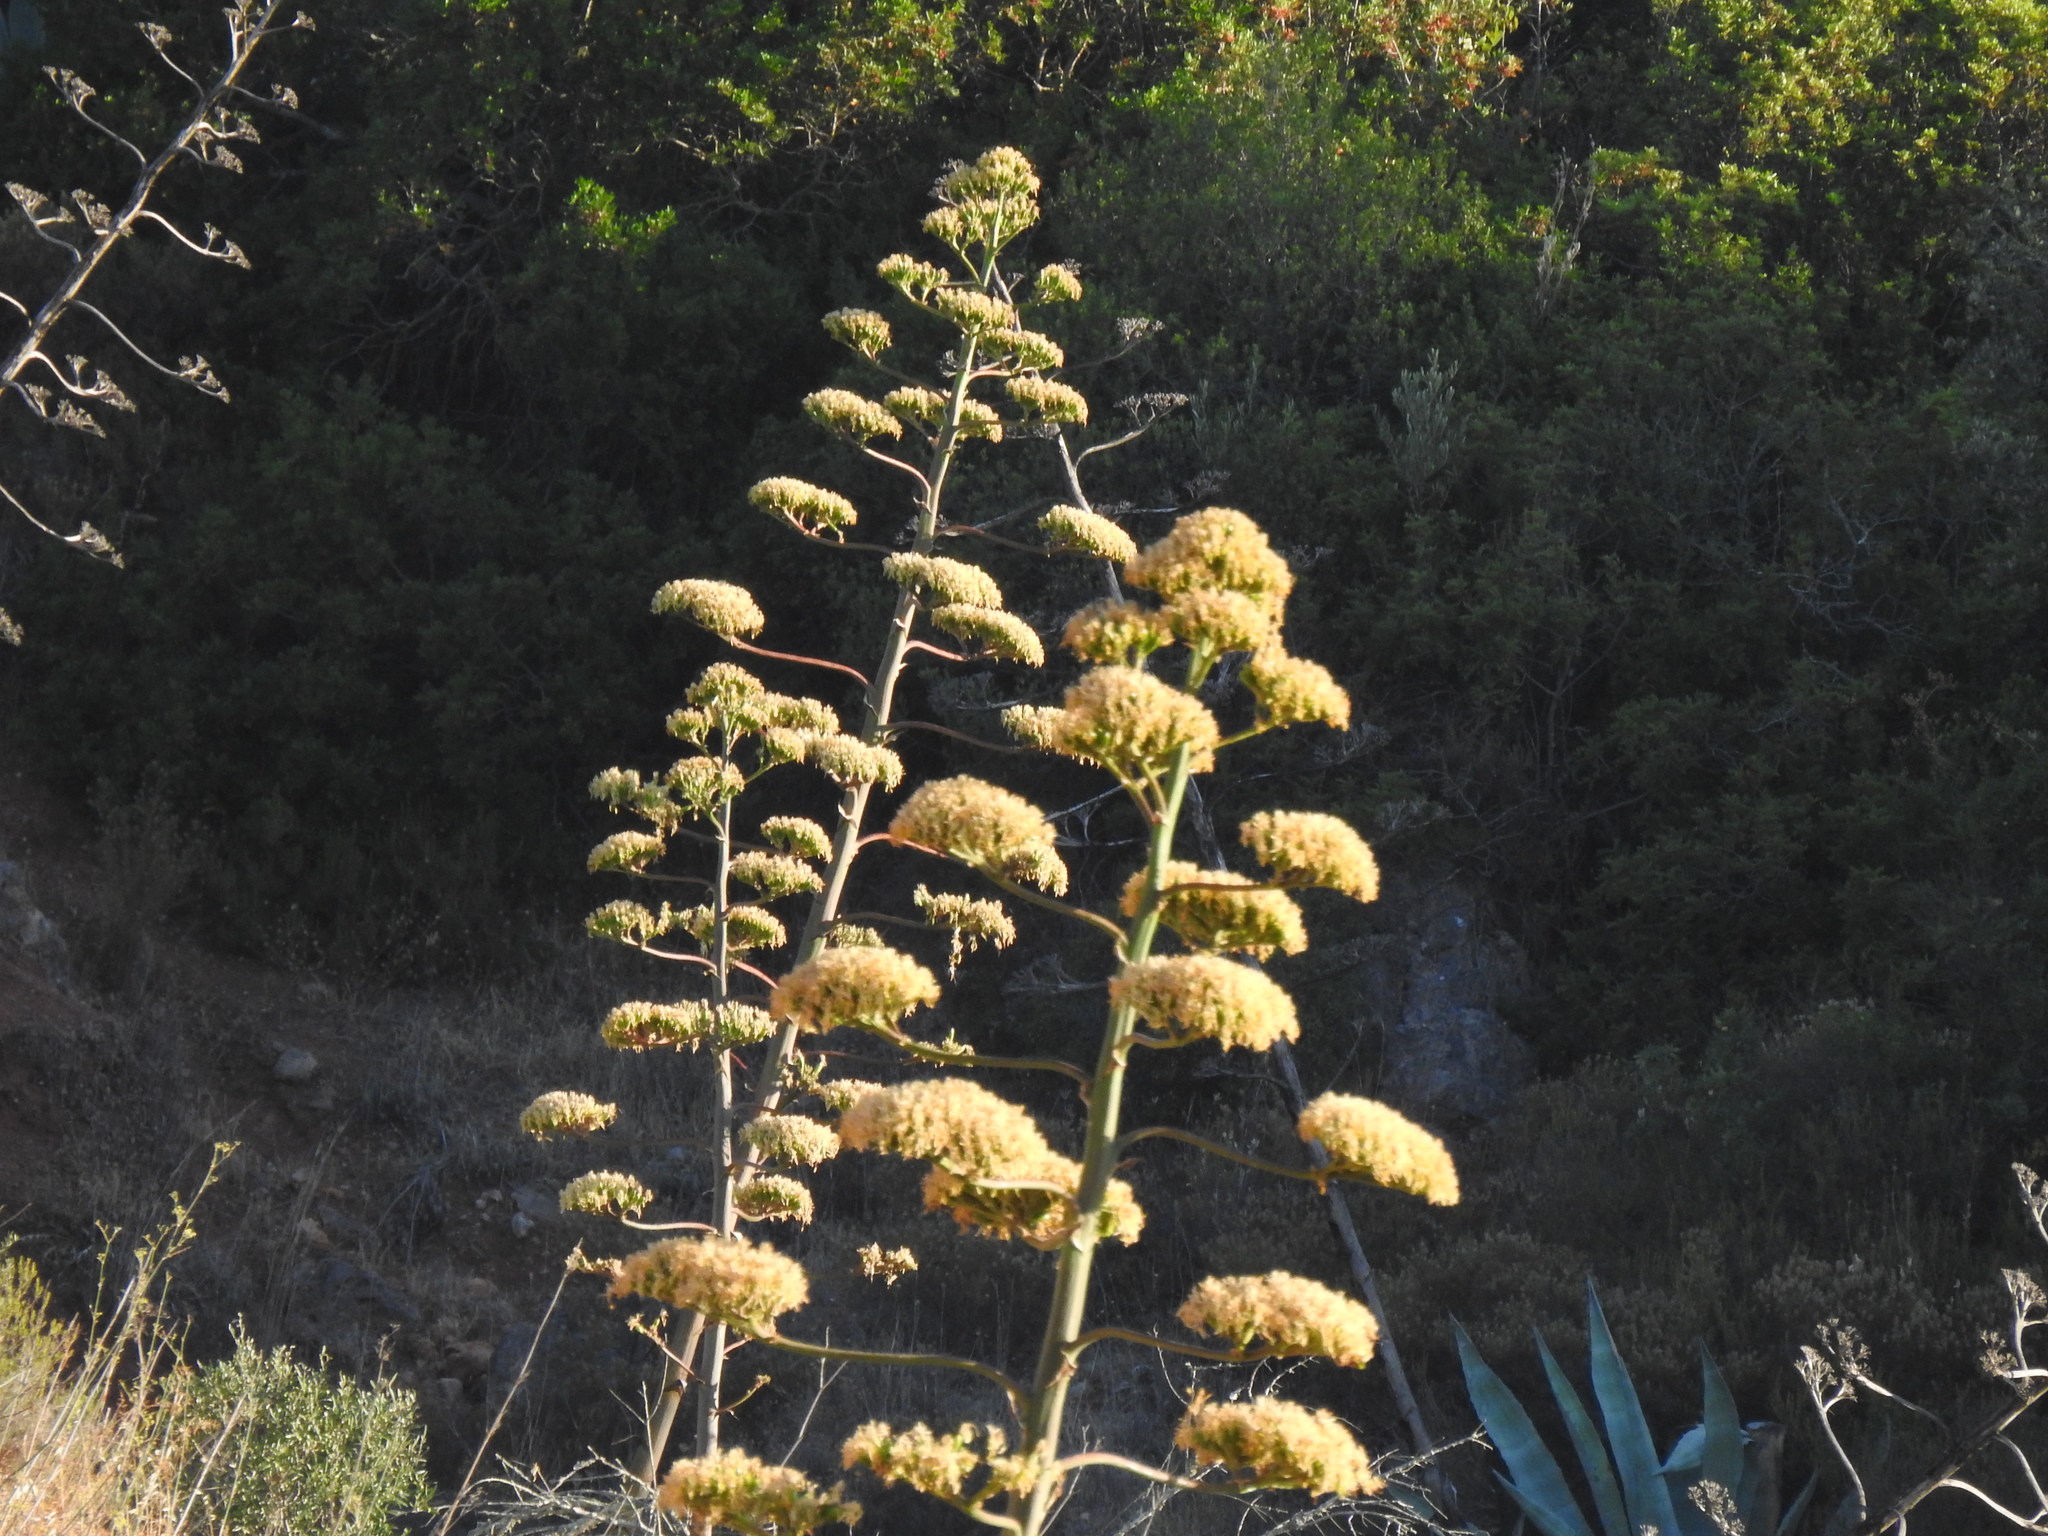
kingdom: Plantae
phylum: Tracheophyta
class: Liliopsida
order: Asparagales
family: Asparagaceae
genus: Agave
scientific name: Agave americana
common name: Centuryplant
